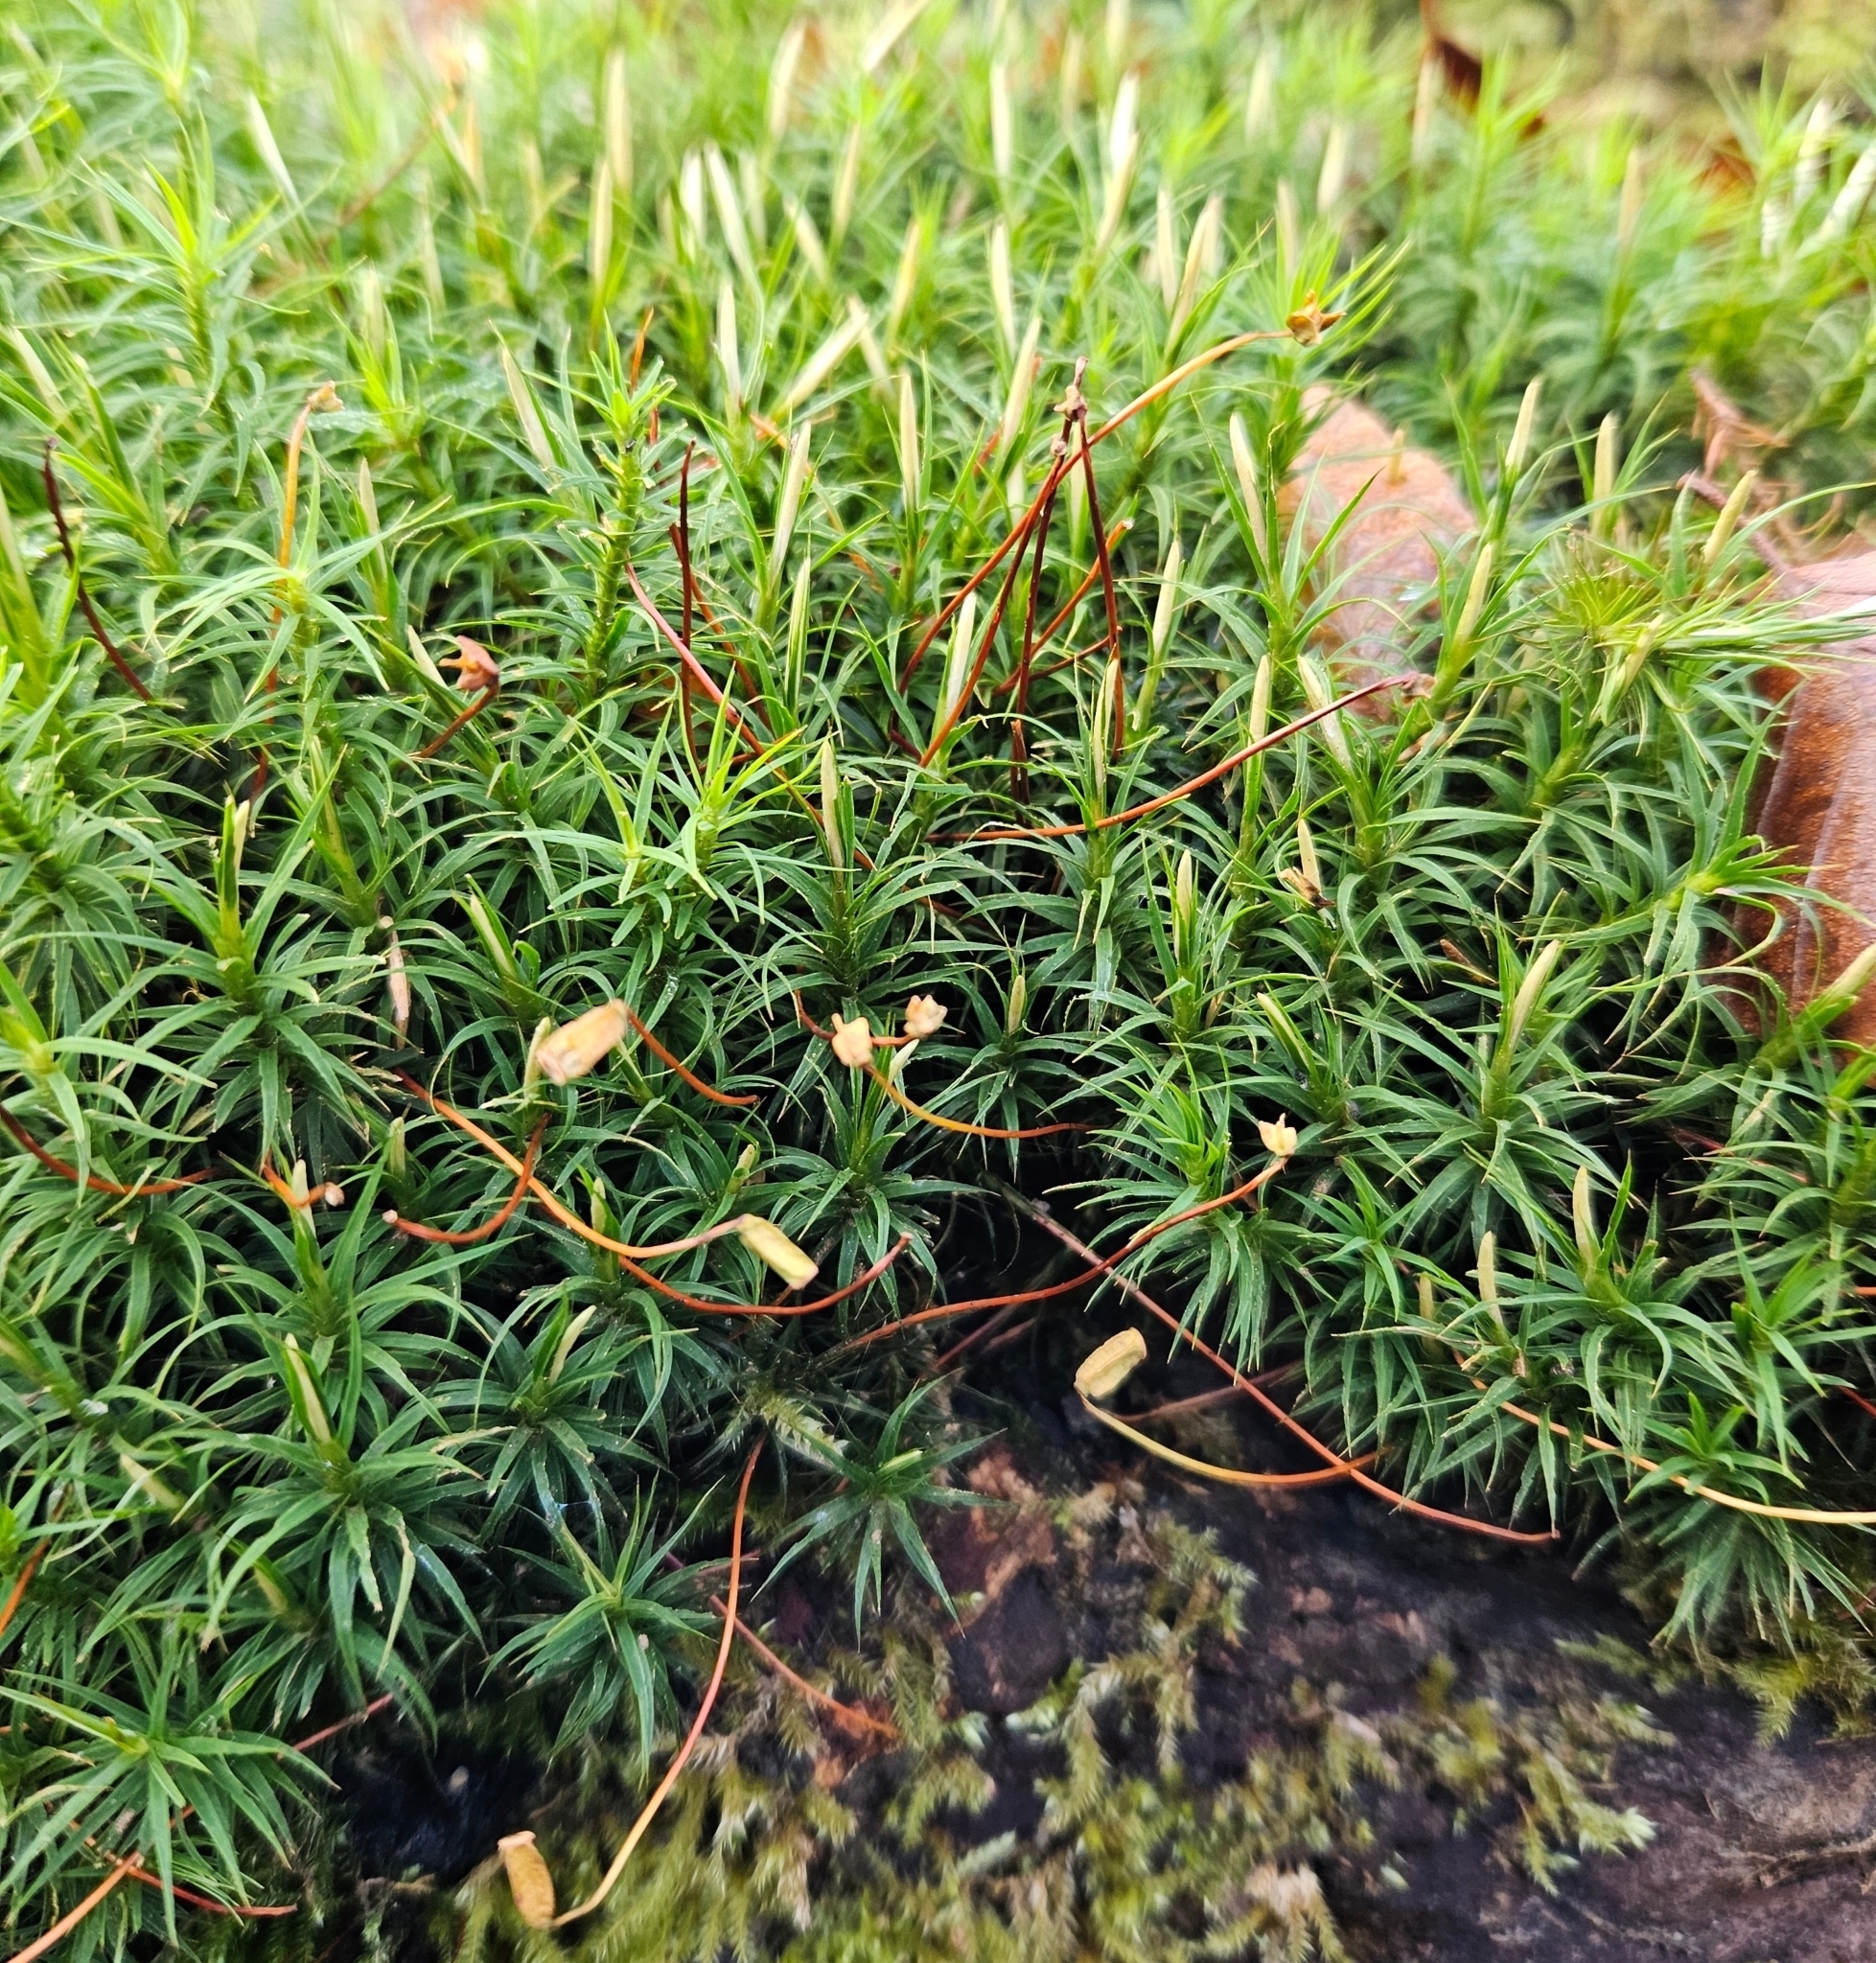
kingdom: Plantae
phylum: Bryophyta
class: Polytrichopsida
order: Polytrichales
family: Polytrichaceae
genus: Polytrichum
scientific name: Polytrichum formosum
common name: Bank haircap moss
